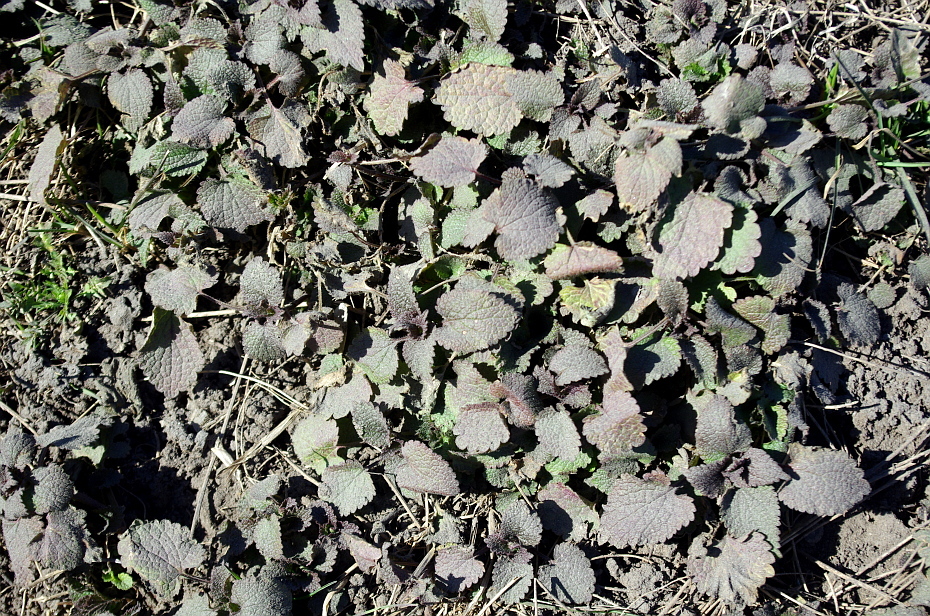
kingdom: Plantae
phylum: Tracheophyta
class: Magnoliopsida
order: Lamiales
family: Lamiaceae
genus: Lamium
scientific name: Lamium album
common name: White dead-nettle
